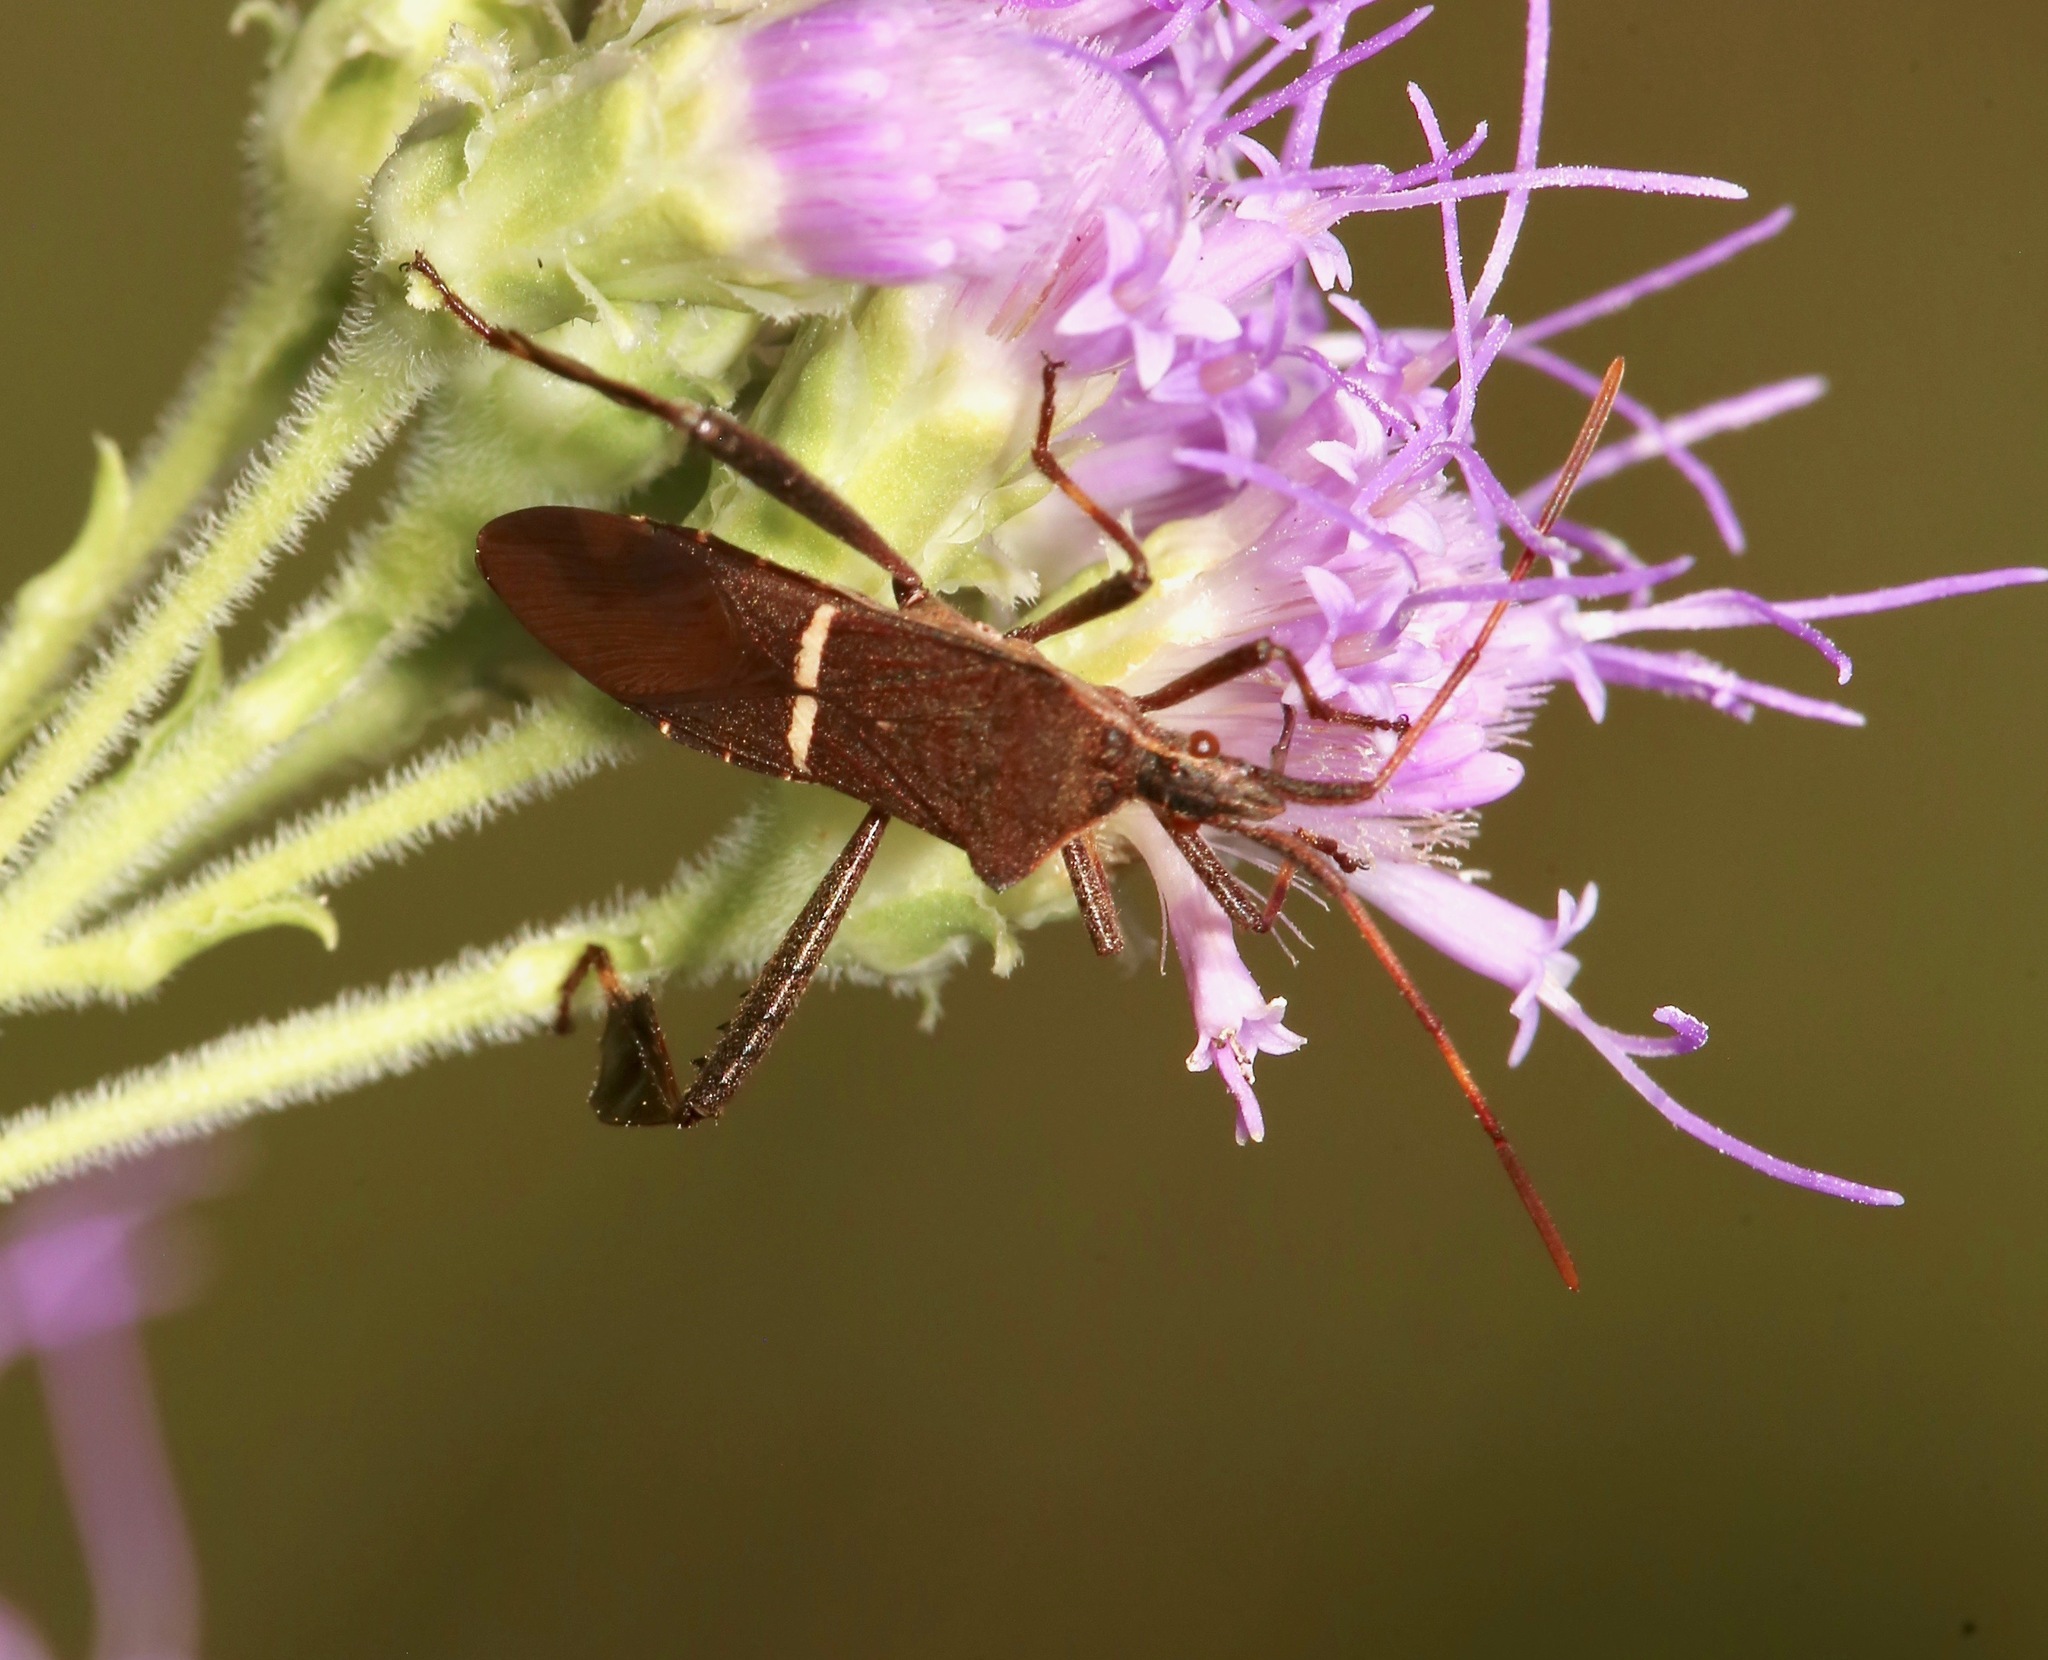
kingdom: Animalia
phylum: Arthropoda
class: Insecta
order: Hemiptera
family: Coreidae
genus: Leptoglossus
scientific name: Leptoglossus phyllopus
